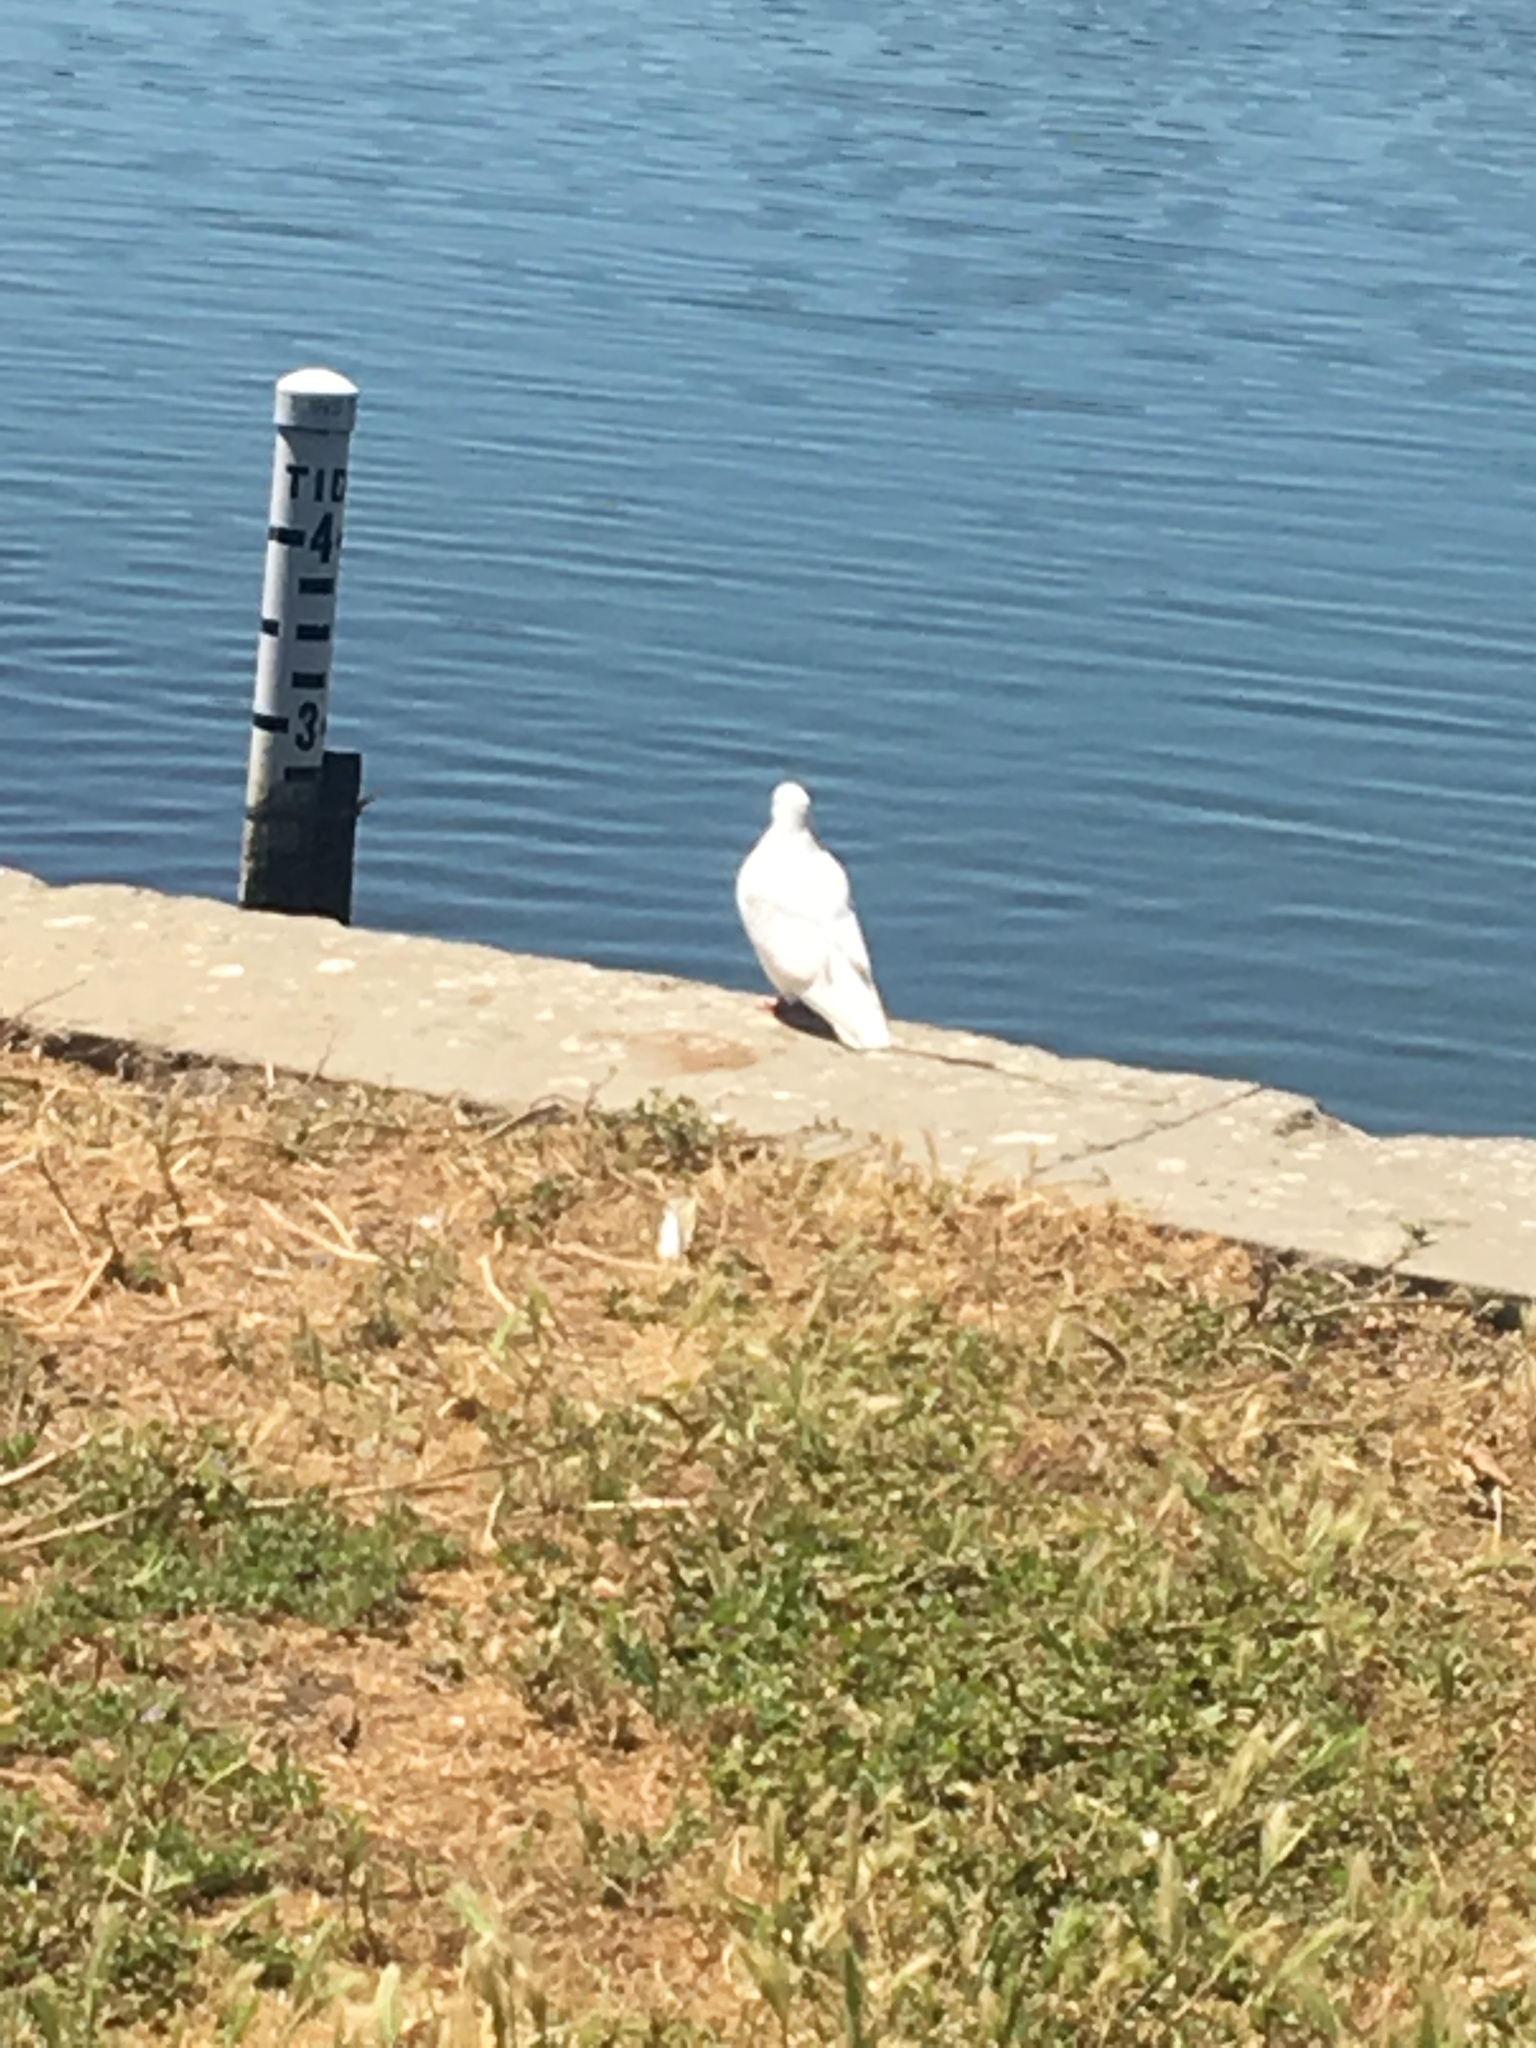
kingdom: Animalia
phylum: Chordata
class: Aves
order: Columbiformes
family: Columbidae
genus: Columba
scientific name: Columba livia
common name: Rock pigeon
